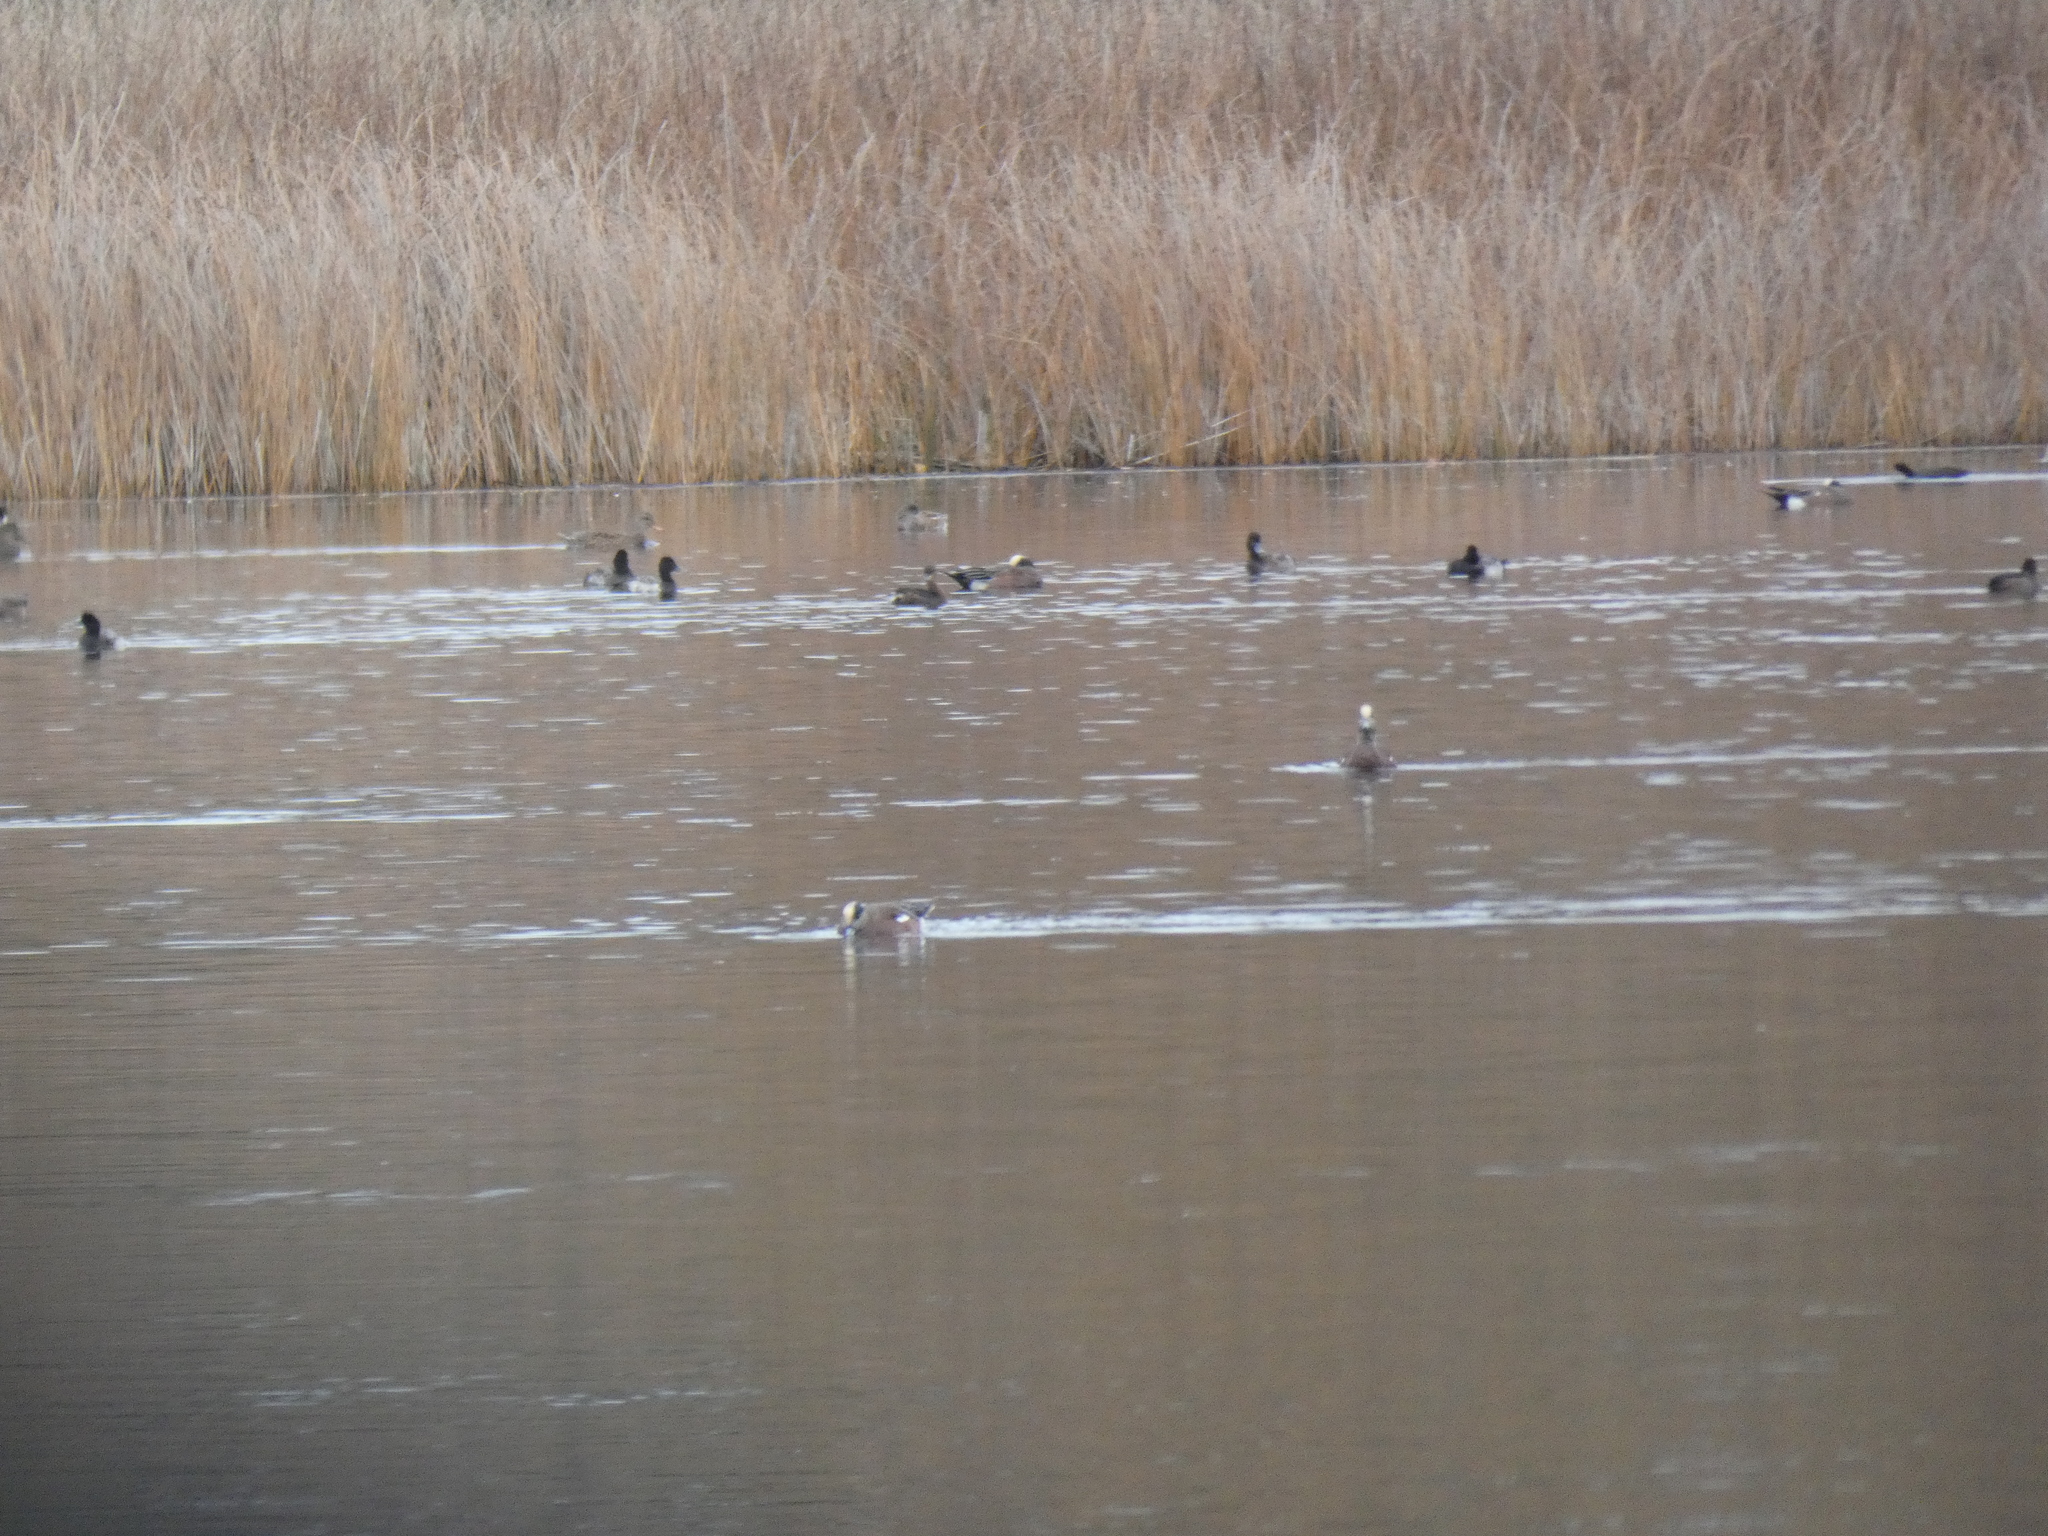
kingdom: Animalia
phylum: Chordata
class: Aves
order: Anseriformes
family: Anatidae
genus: Mareca
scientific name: Mareca strepera
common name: Gadwall
